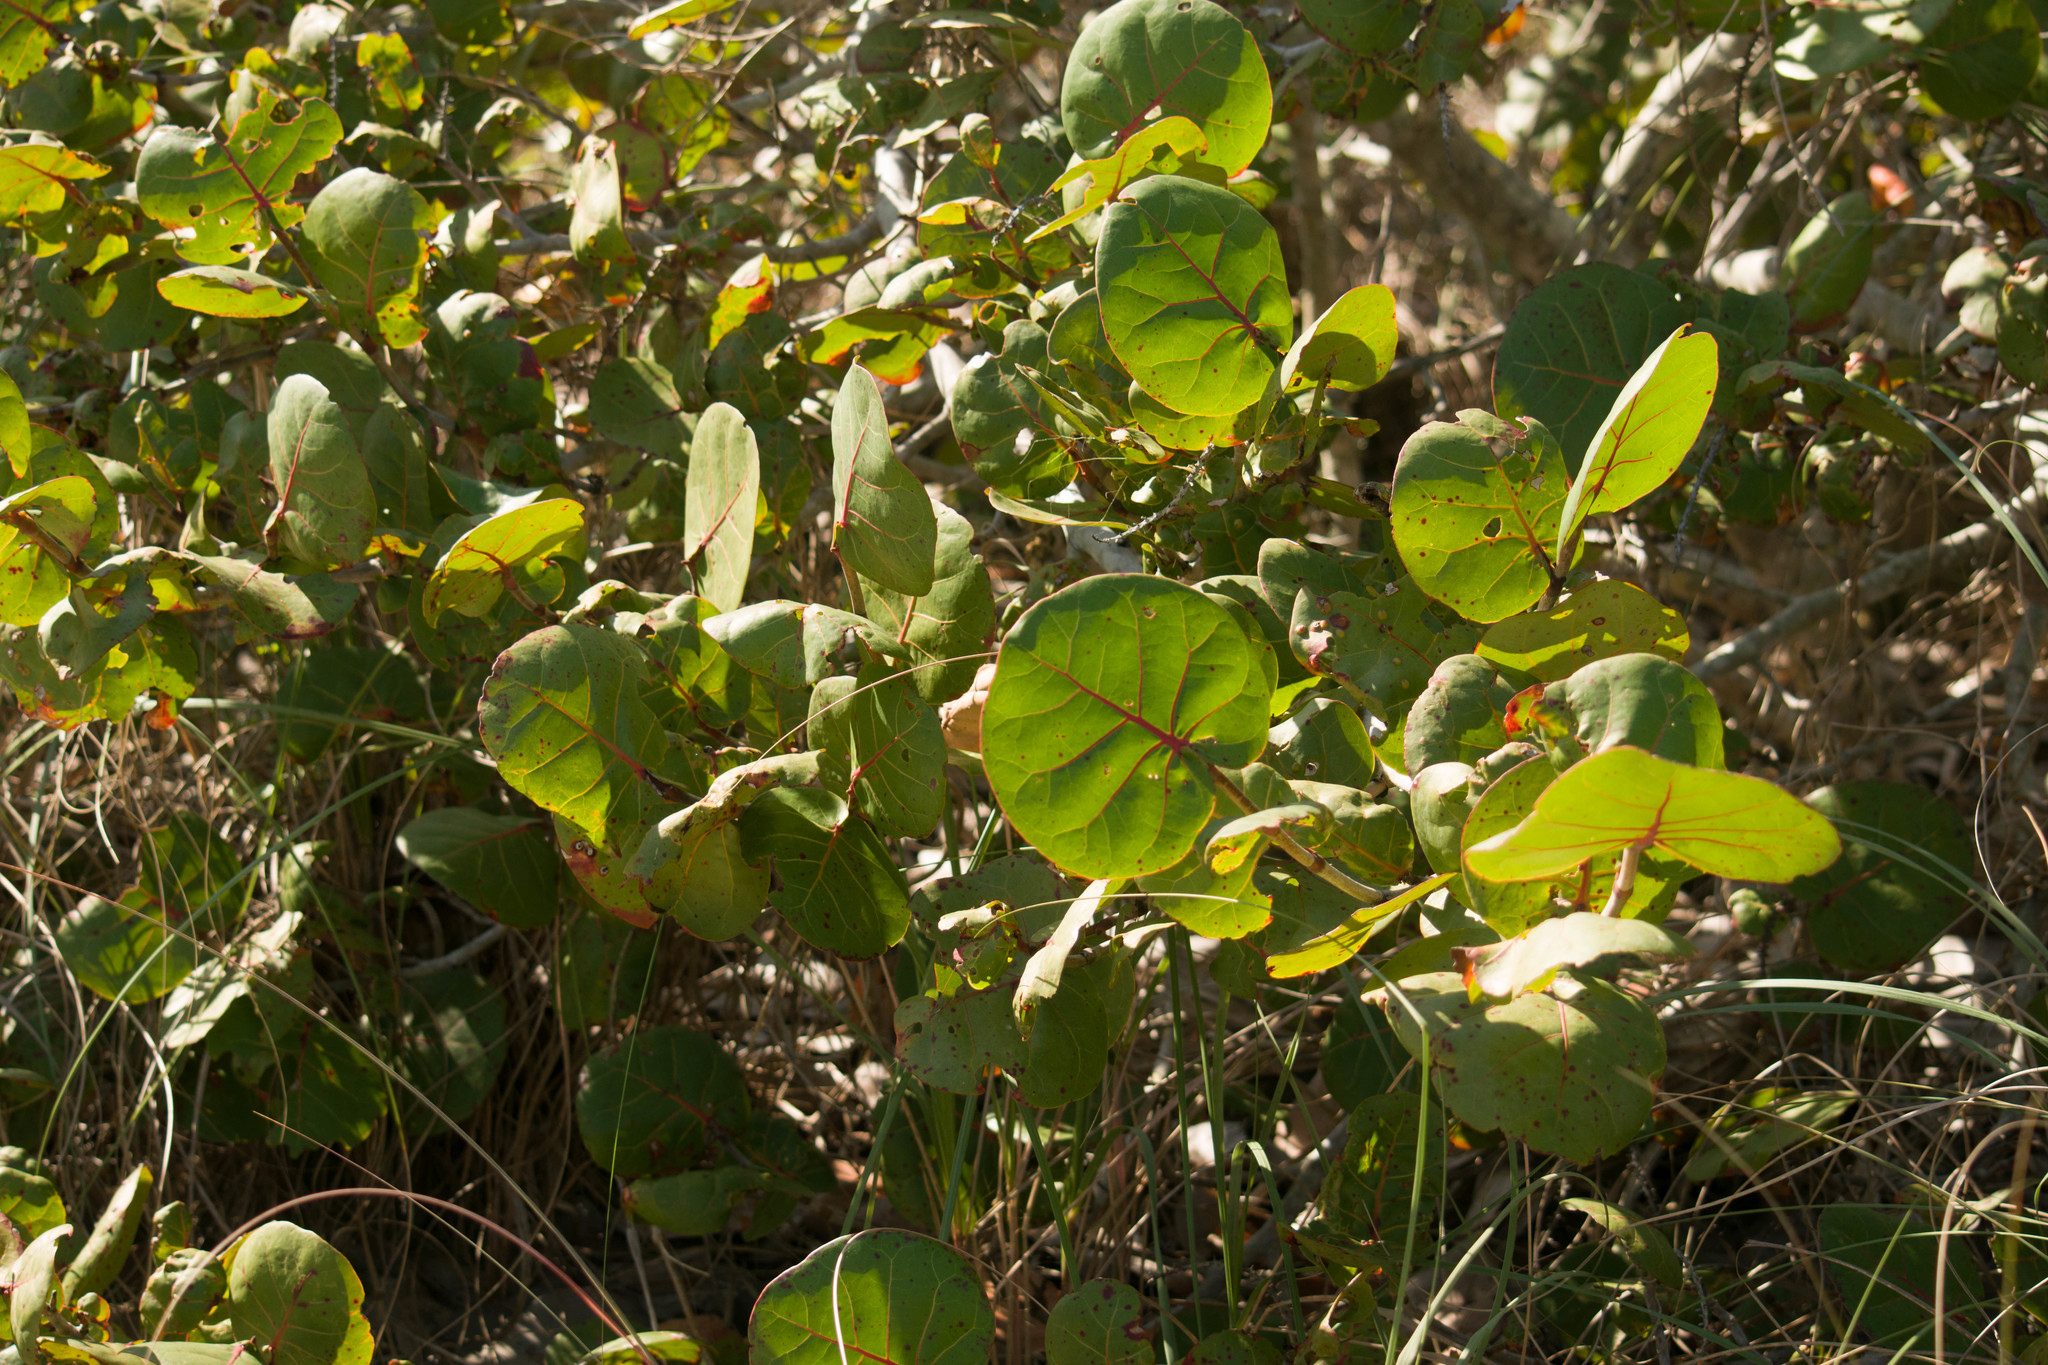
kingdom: Plantae
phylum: Tracheophyta
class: Magnoliopsida
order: Caryophyllales
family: Polygonaceae
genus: Coccoloba
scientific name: Coccoloba uvifera
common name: Seagrape
